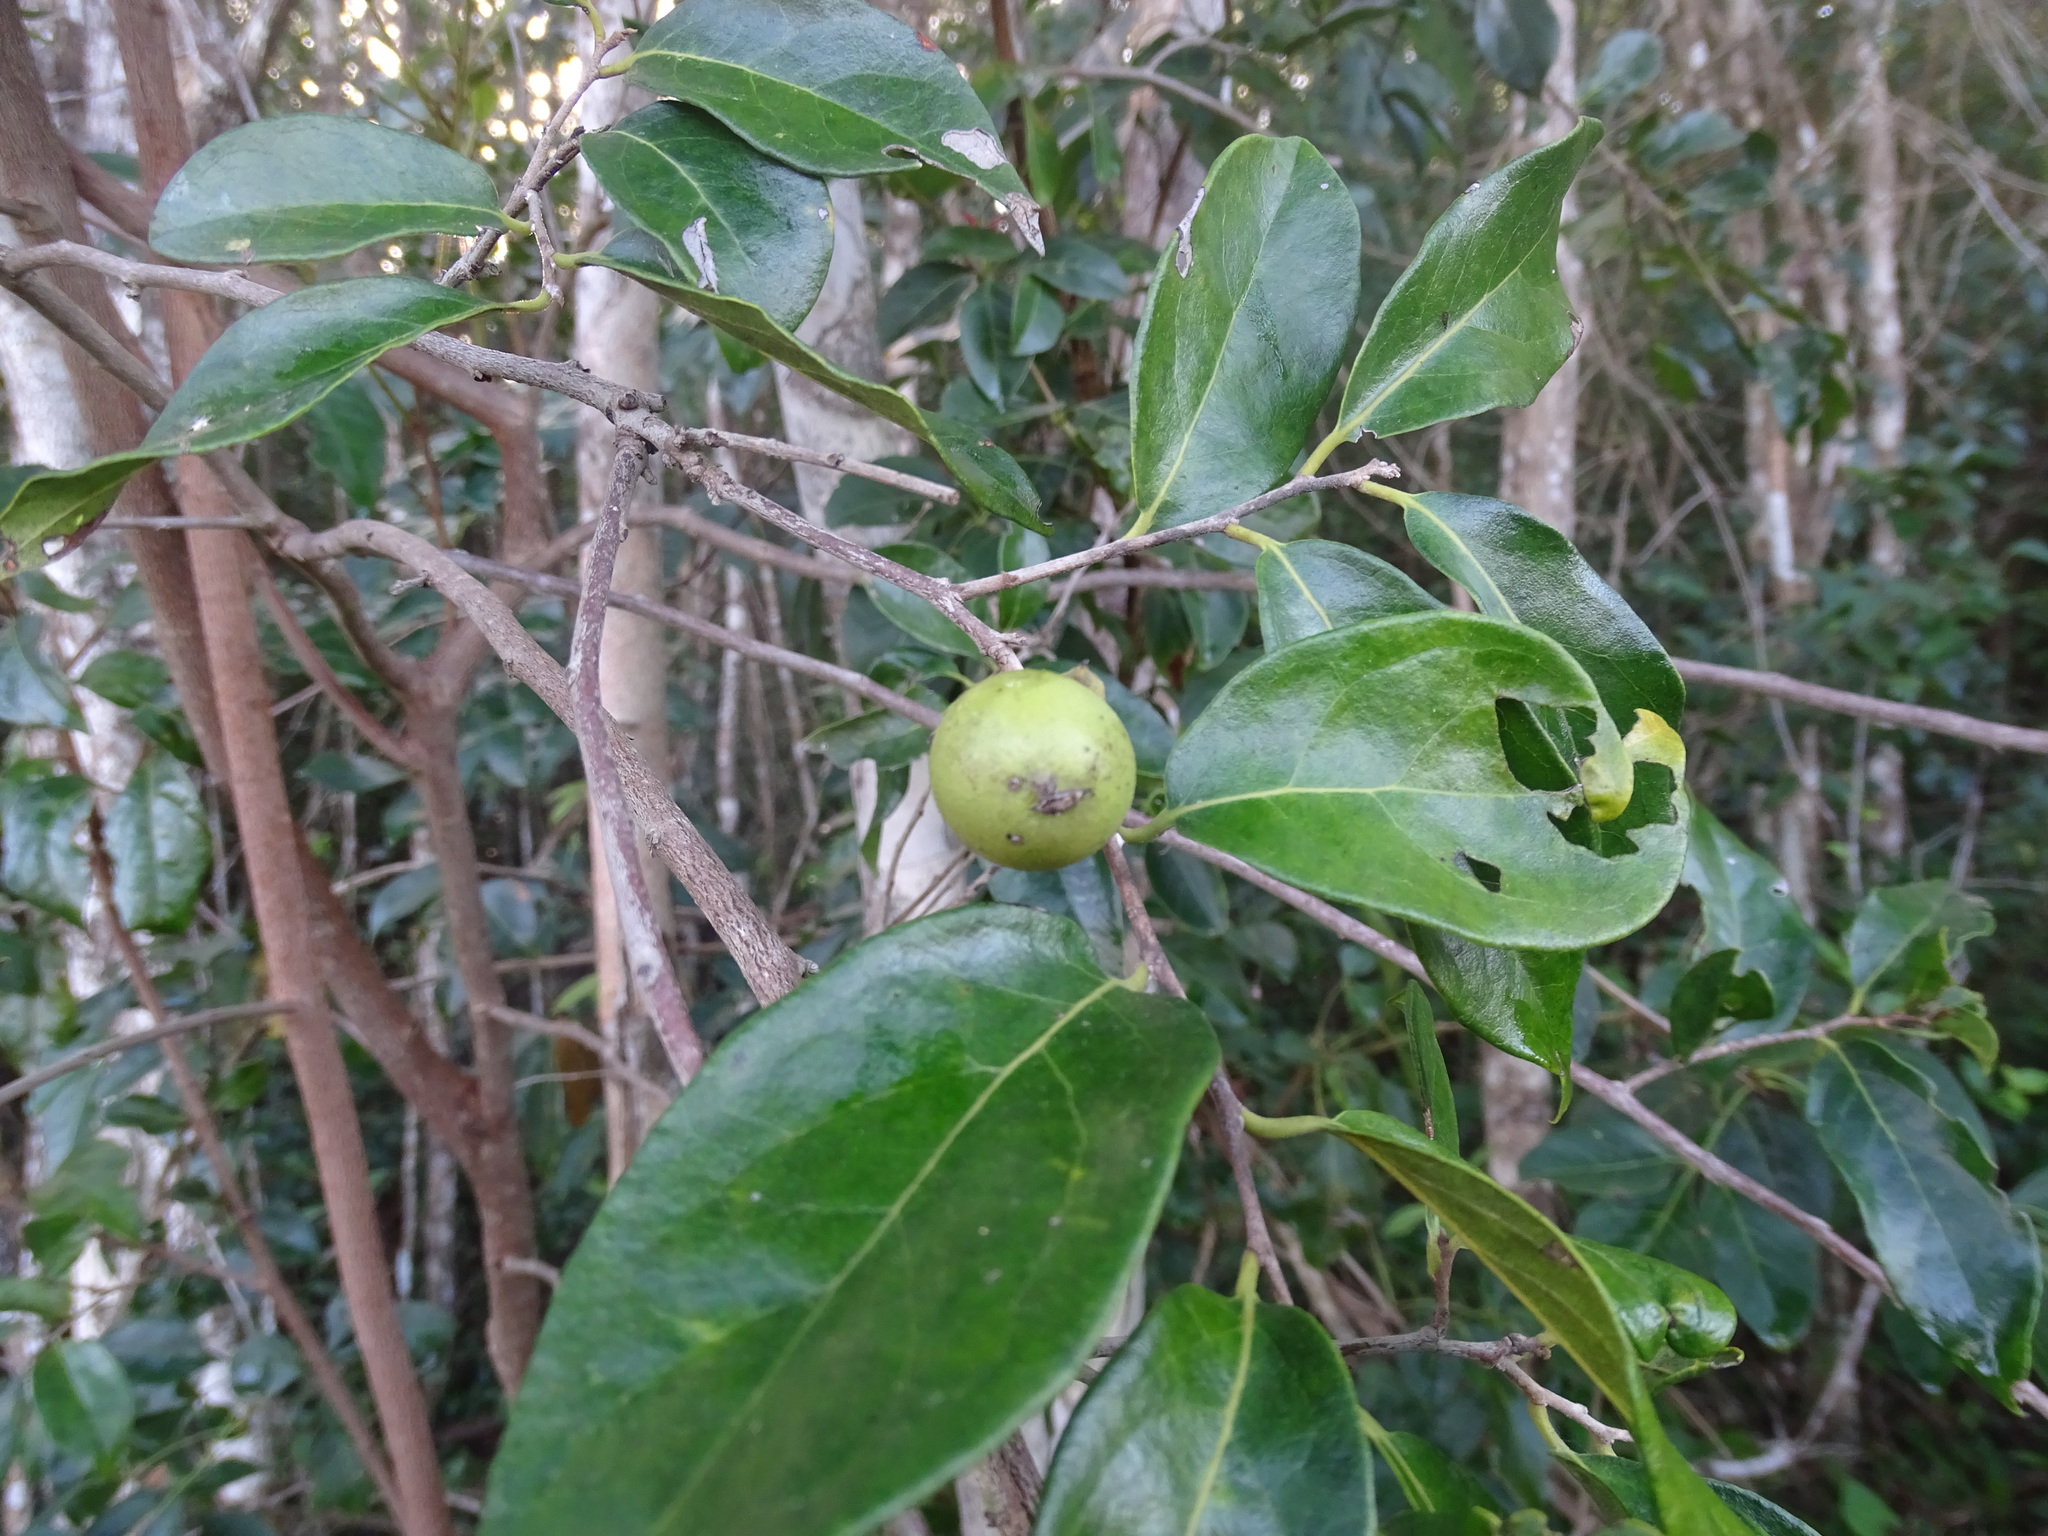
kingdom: Plantae
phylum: Tracheophyta
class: Magnoliopsida
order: Ericales
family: Ebenaceae
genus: Diospyros
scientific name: Diospyros salicifolia
